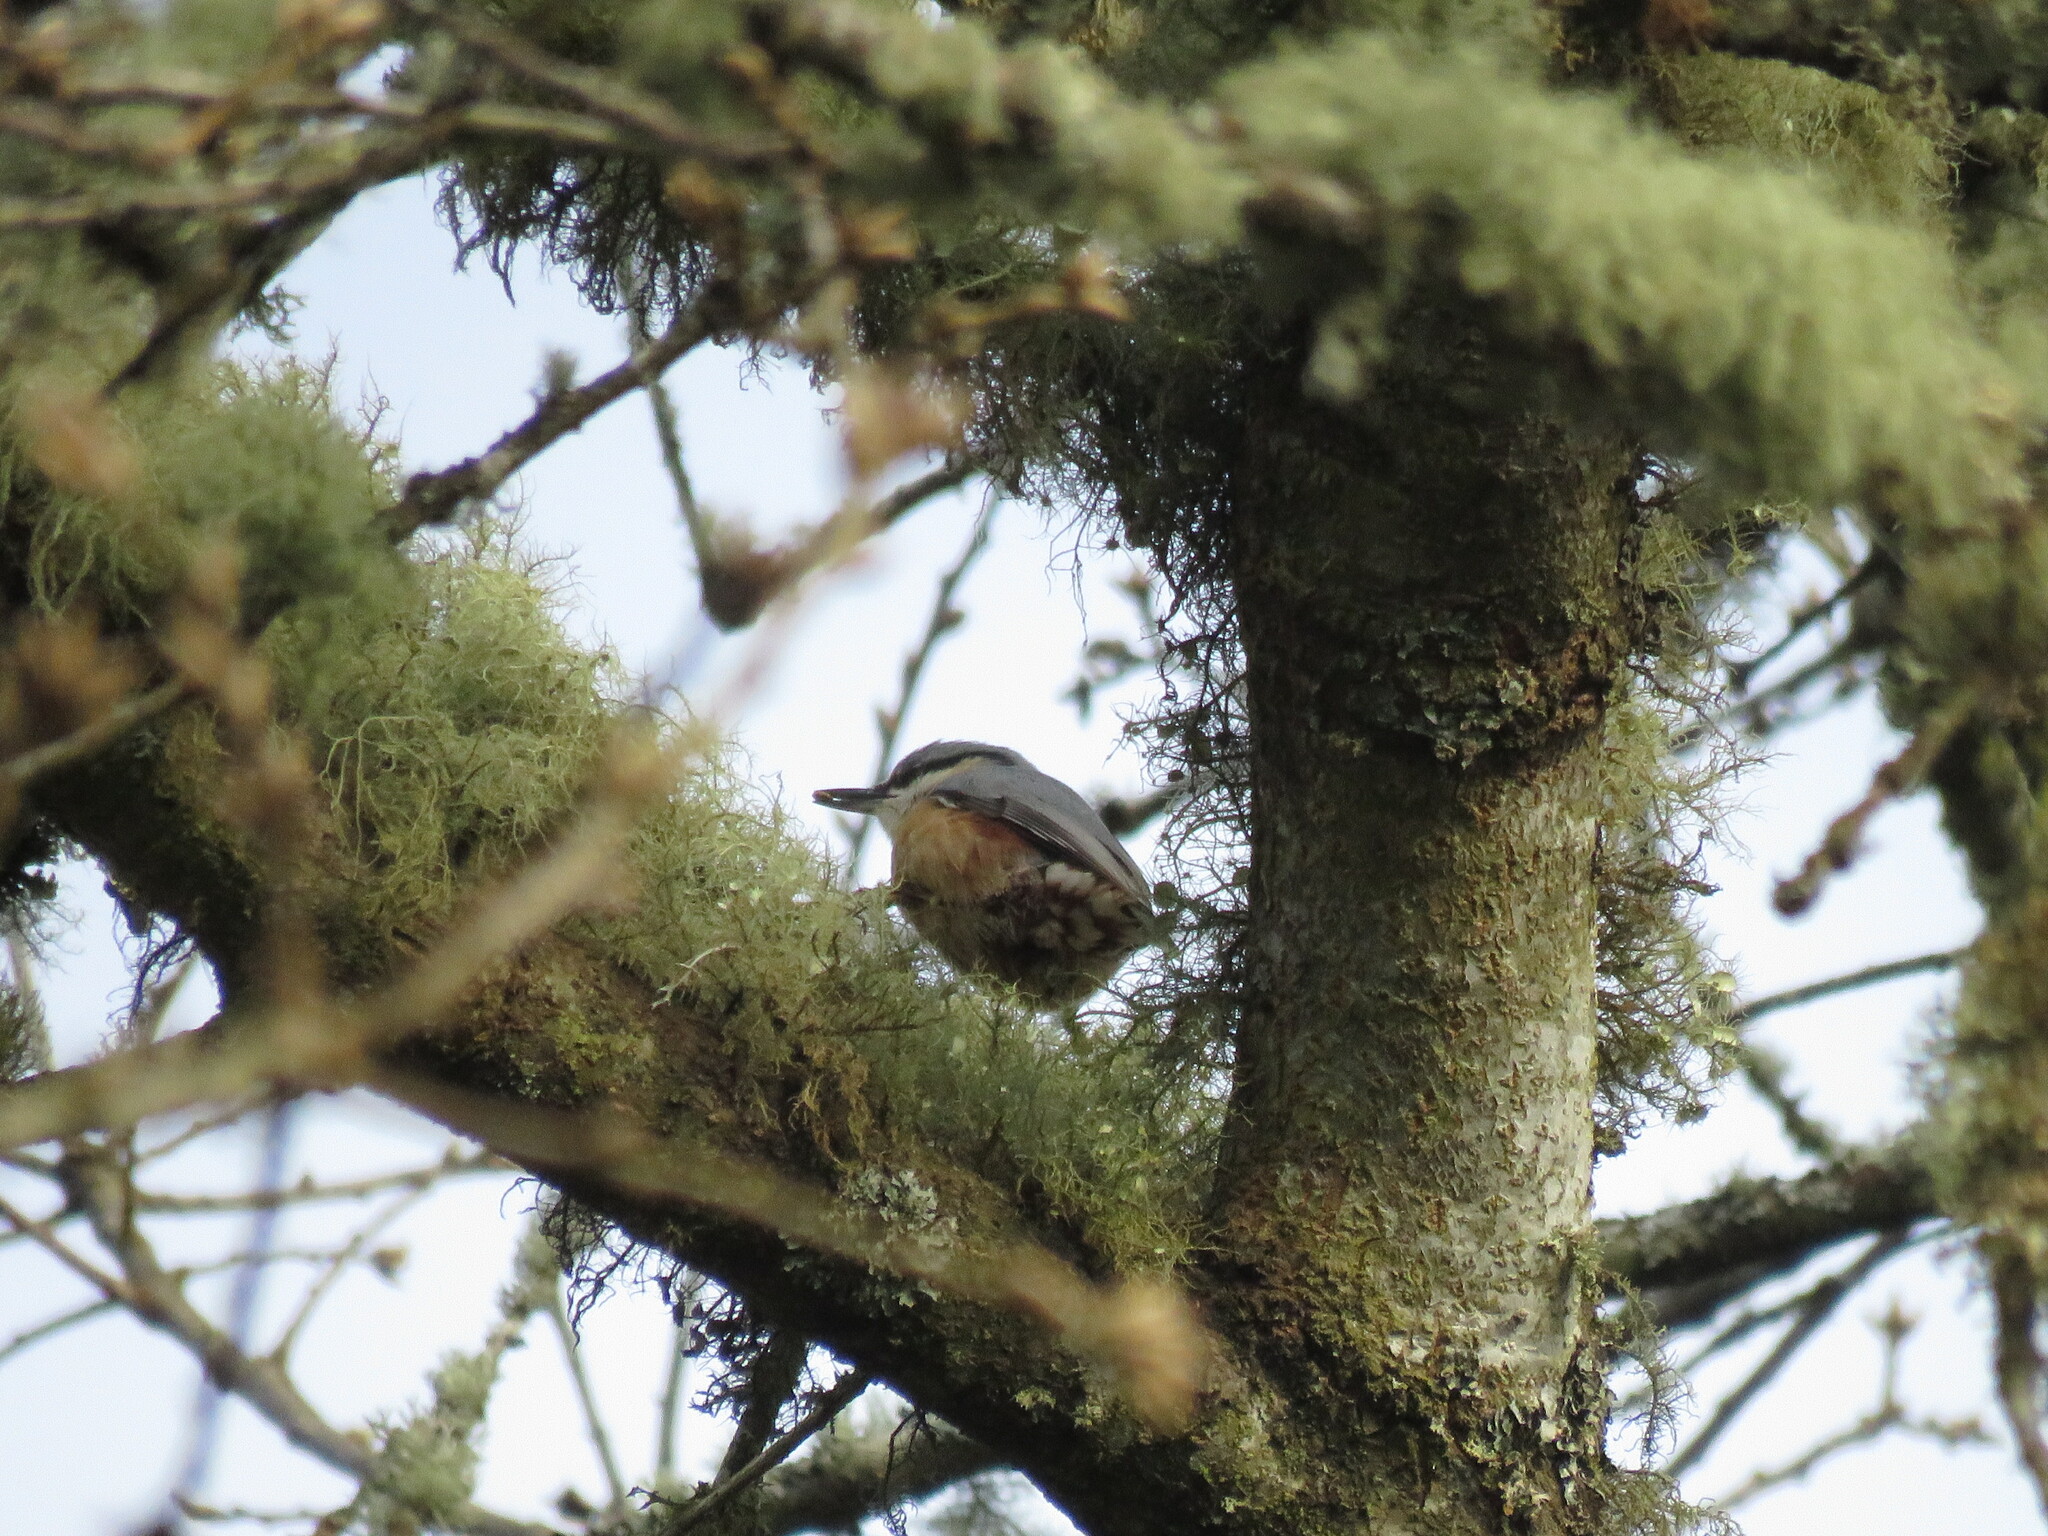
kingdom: Animalia
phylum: Chordata
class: Aves
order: Passeriformes
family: Sittidae
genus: Sitta
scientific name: Sitta europaea
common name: Eurasian nuthatch
